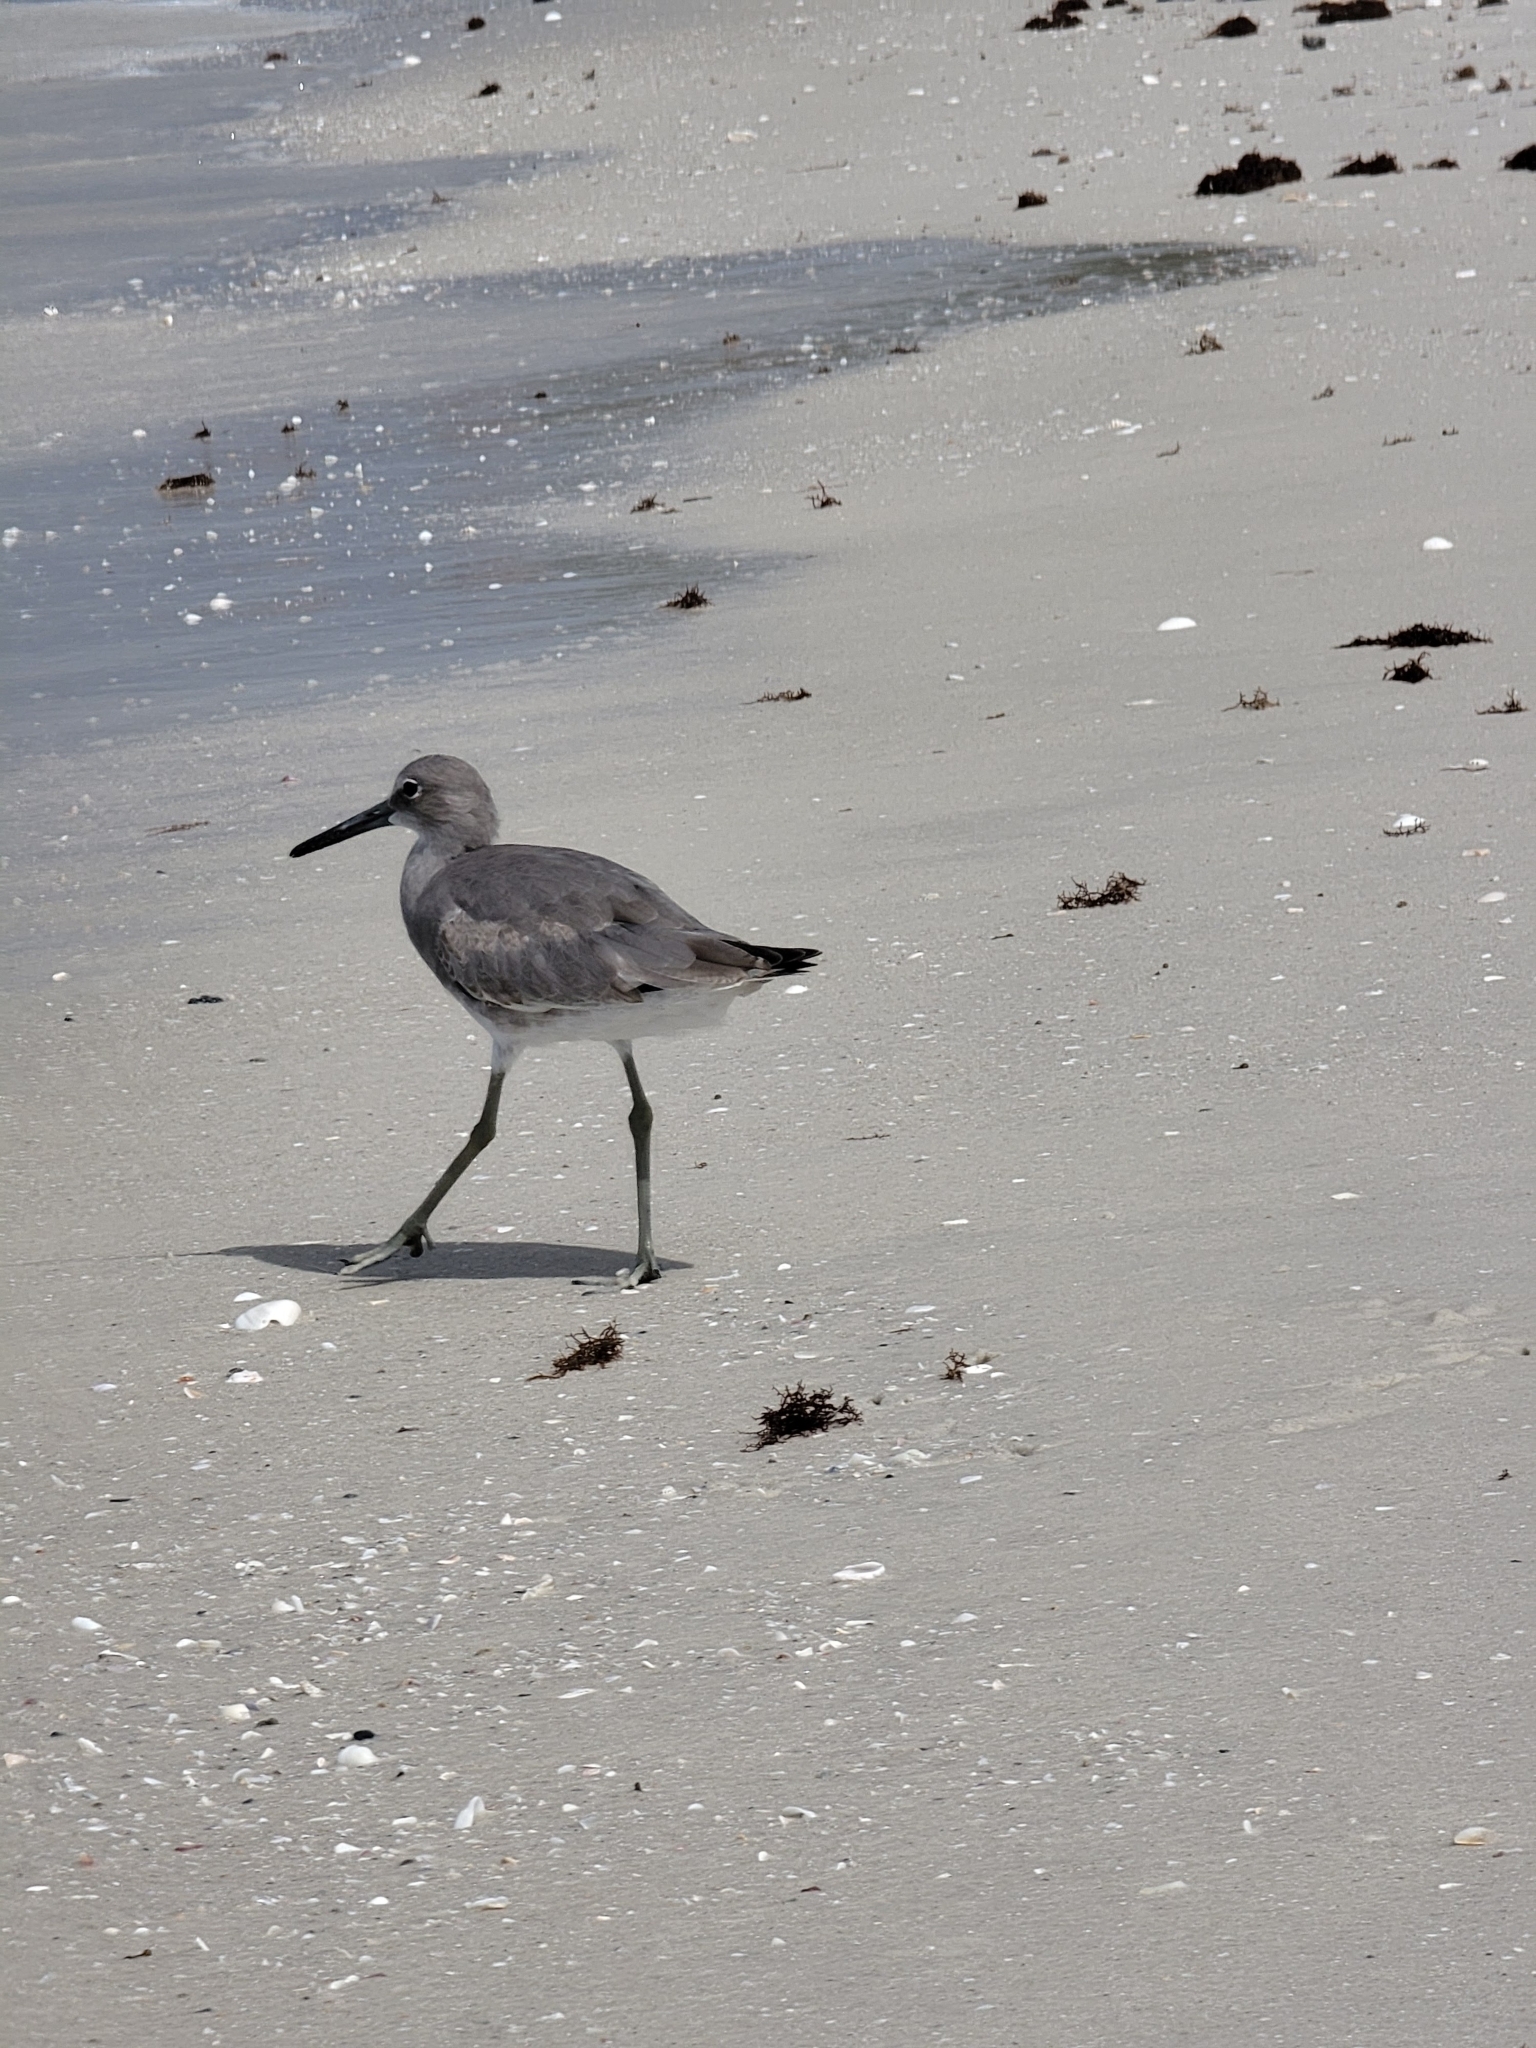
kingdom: Animalia
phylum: Chordata
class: Aves
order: Charadriiformes
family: Scolopacidae
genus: Tringa
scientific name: Tringa semipalmata
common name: Willet
